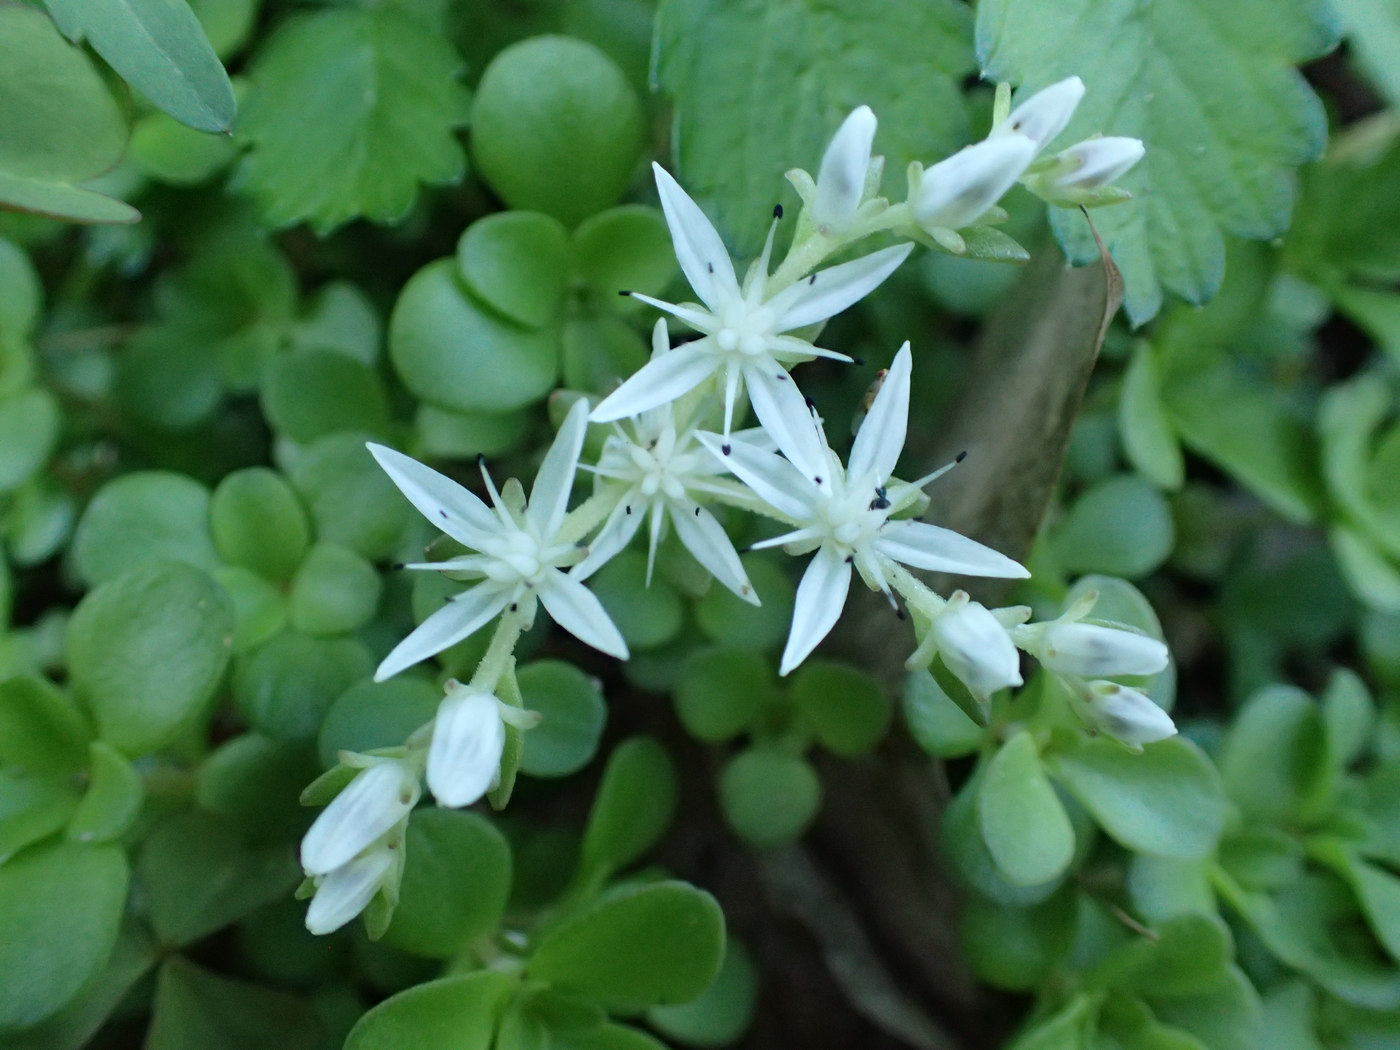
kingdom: Plantae
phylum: Tracheophyta
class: Magnoliopsida
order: Saxifragales
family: Crassulaceae
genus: Sedum
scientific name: Sedum ternatum
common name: Wild stonecrop
